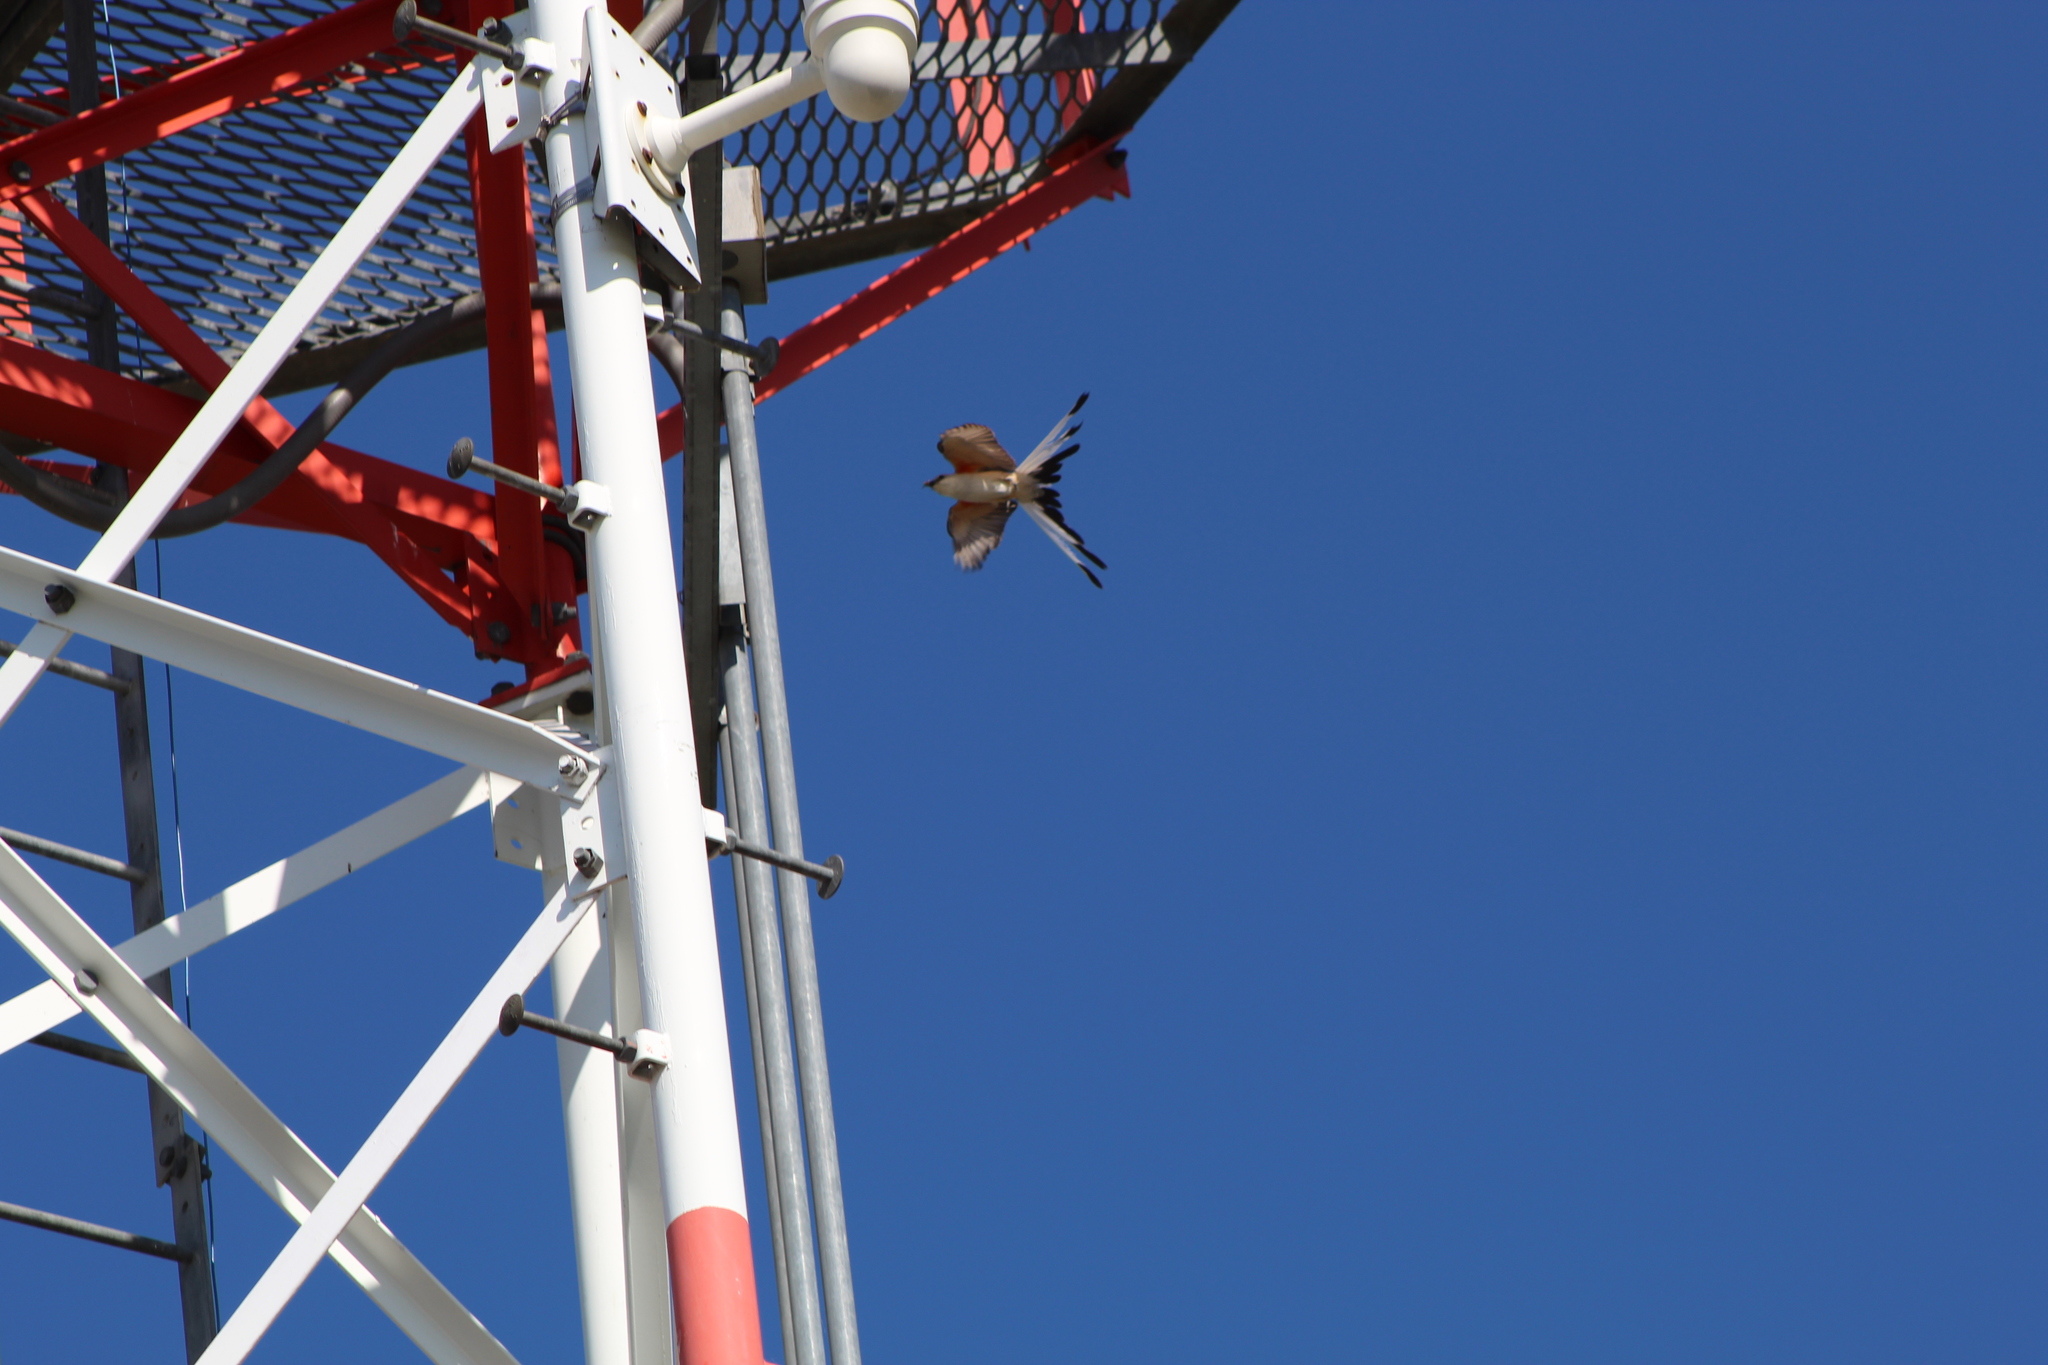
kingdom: Animalia
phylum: Chordata
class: Aves
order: Passeriformes
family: Tyrannidae
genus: Tyrannus
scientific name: Tyrannus forficatus
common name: Scissor-tailed flycatcher
